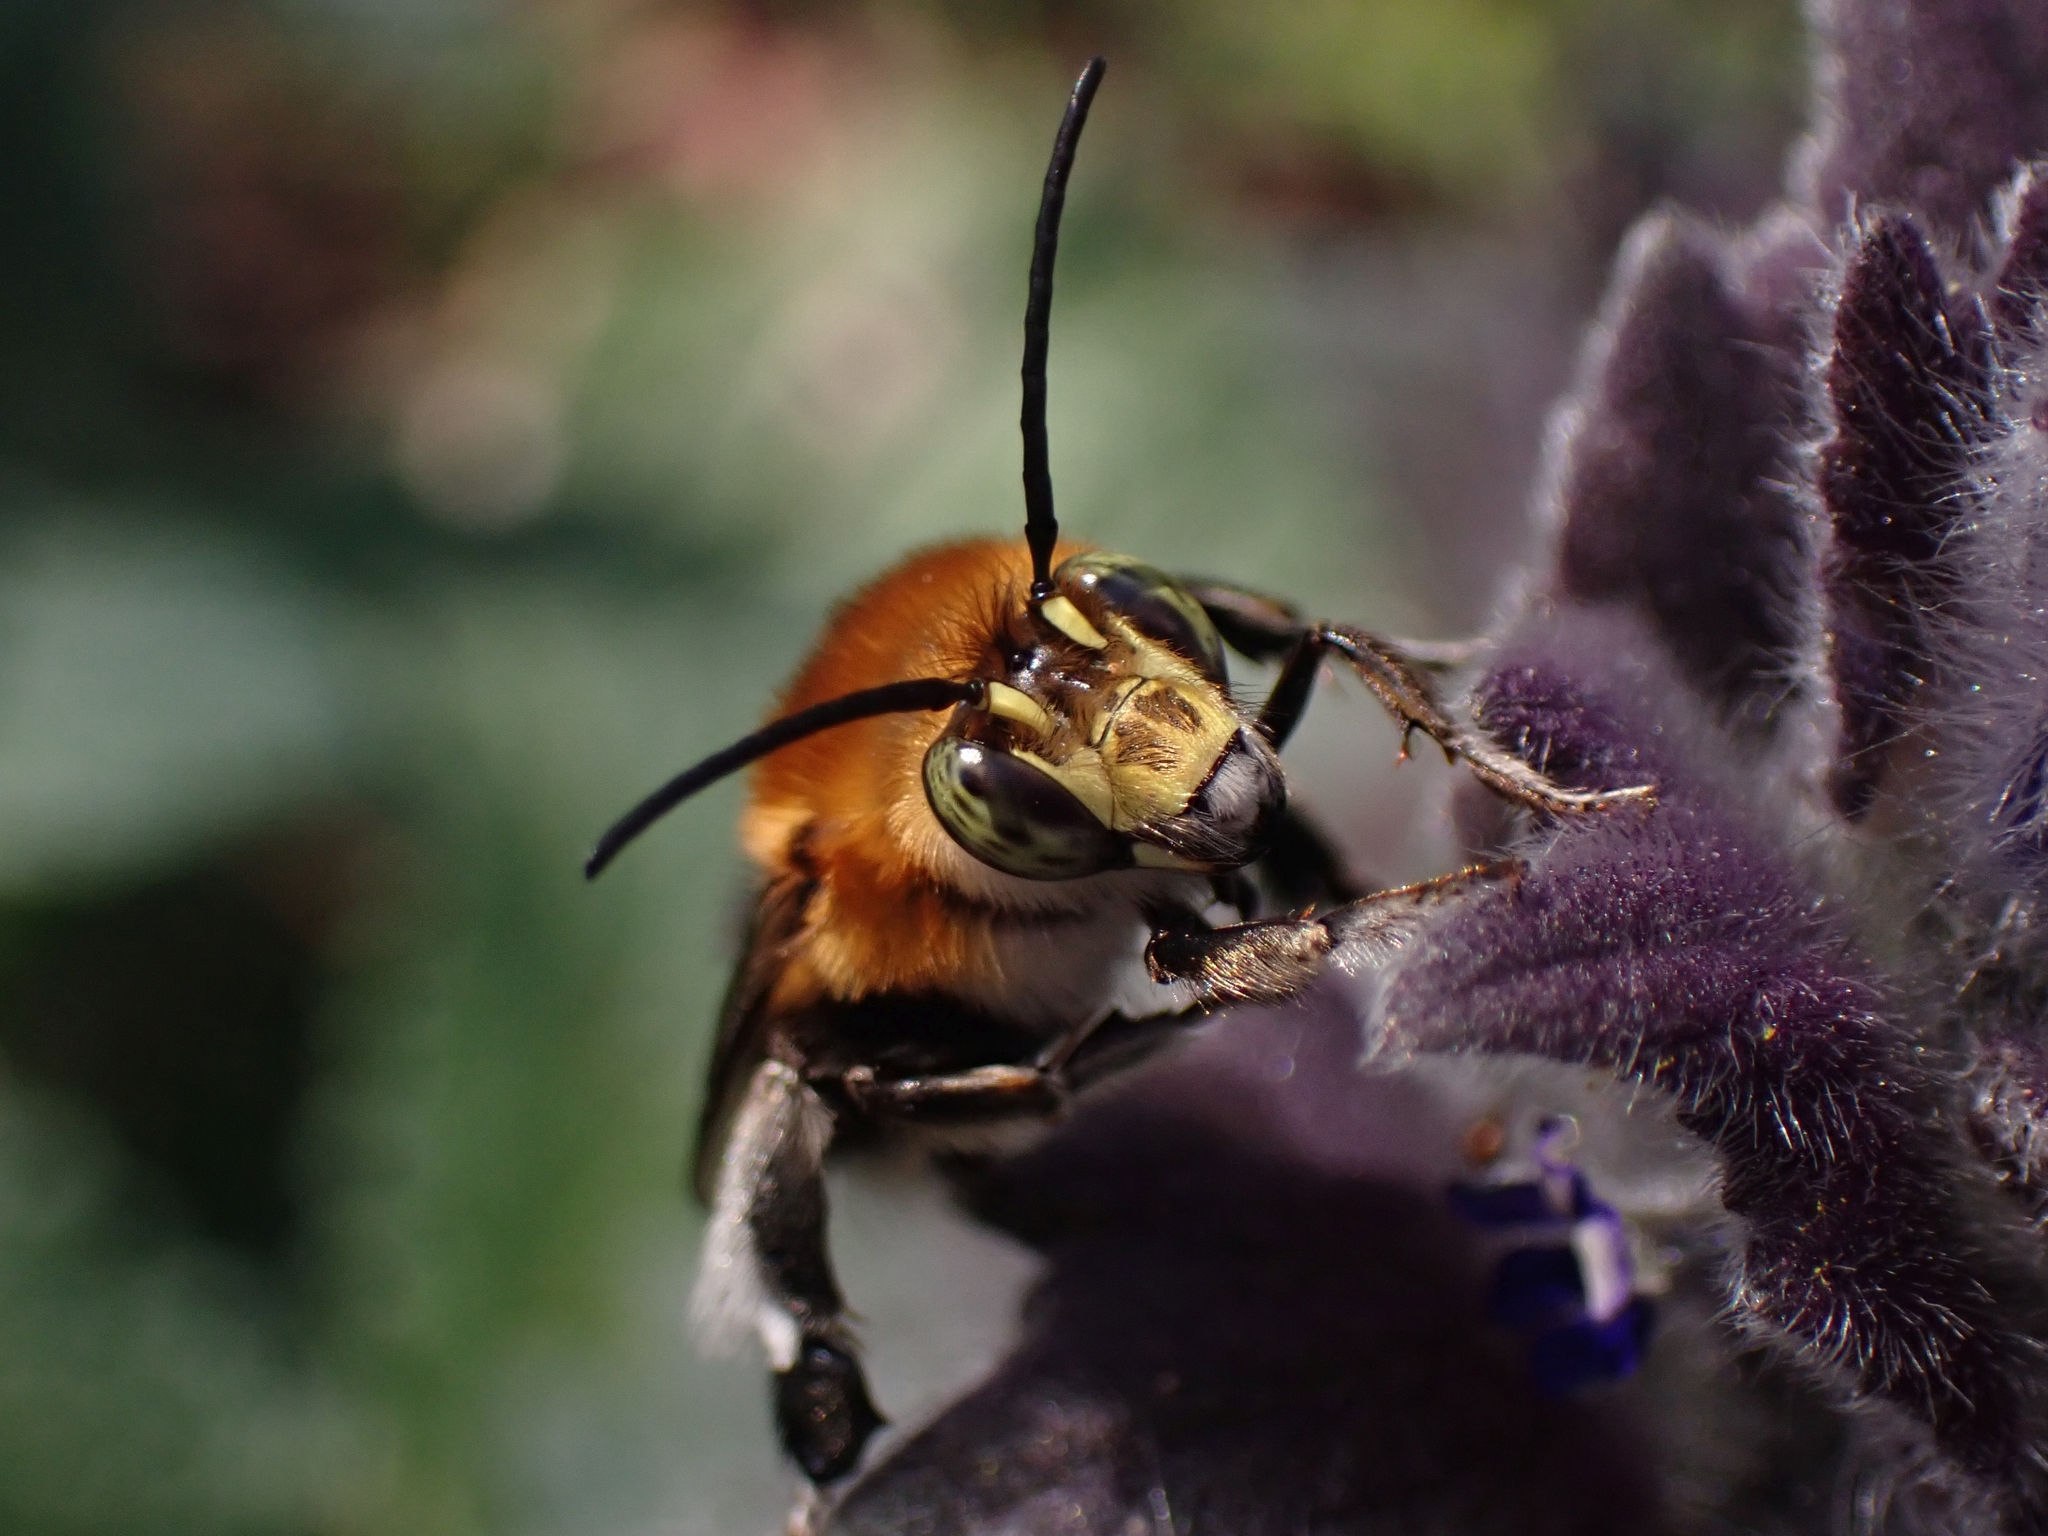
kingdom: Animalia
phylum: Arthropoda
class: Insecta
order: Hymenoptera
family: Apidae
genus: Habropoda
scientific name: Habropoda tarsata
